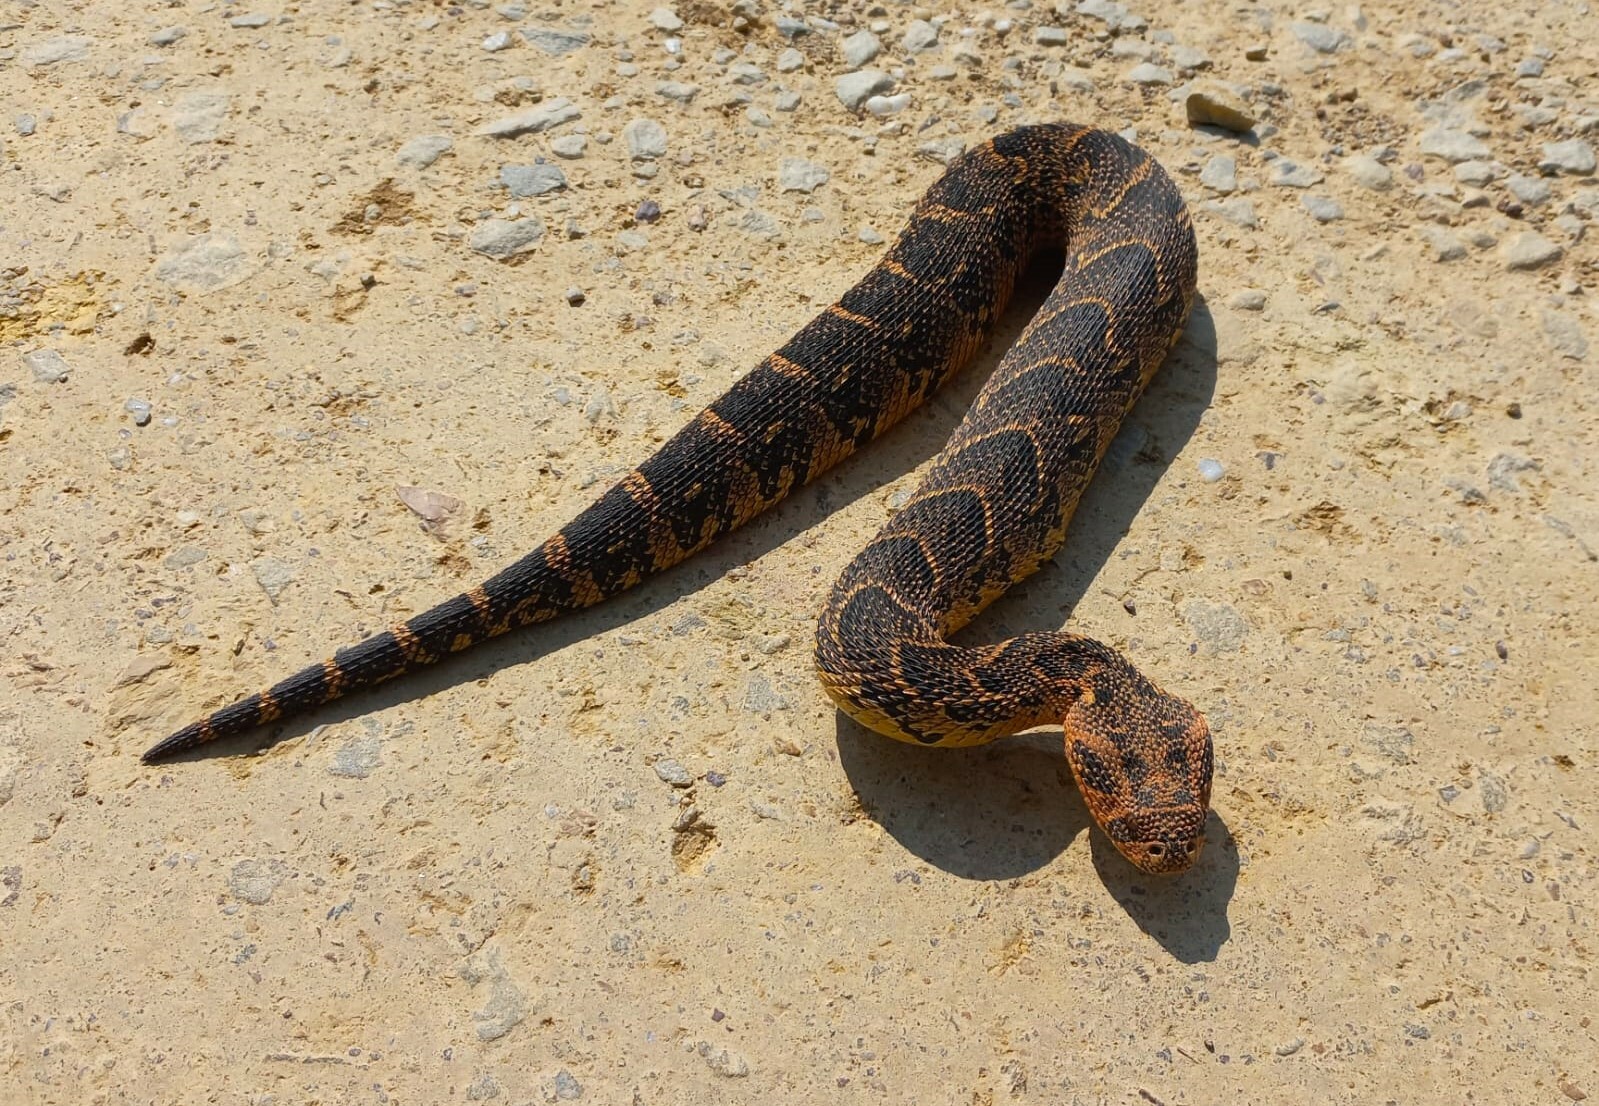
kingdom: Animalia
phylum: Chordata
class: Squamata
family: Viperidae
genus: Bitis
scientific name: Bitis arietans
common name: Puff adder
